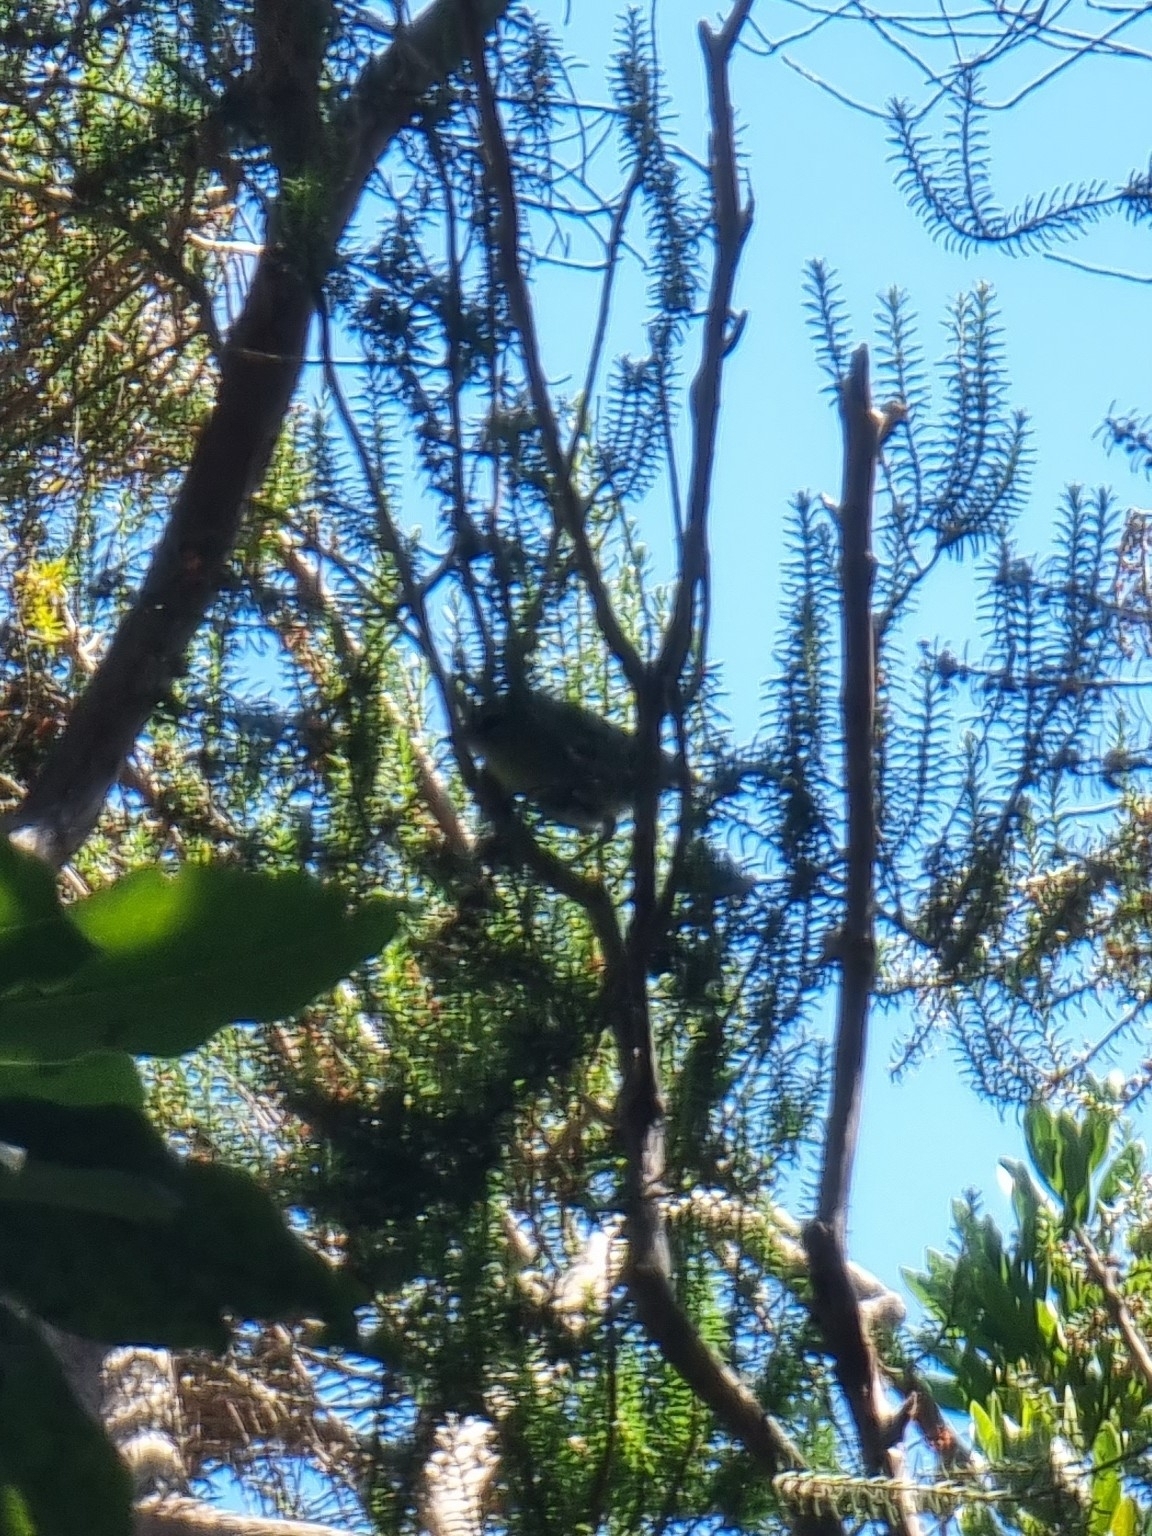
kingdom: Animalia
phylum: Chordata
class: Aves
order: Passeriformes
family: Regulidae
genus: Regulus
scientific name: Regulus madeirensis
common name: Madeira firecrest
